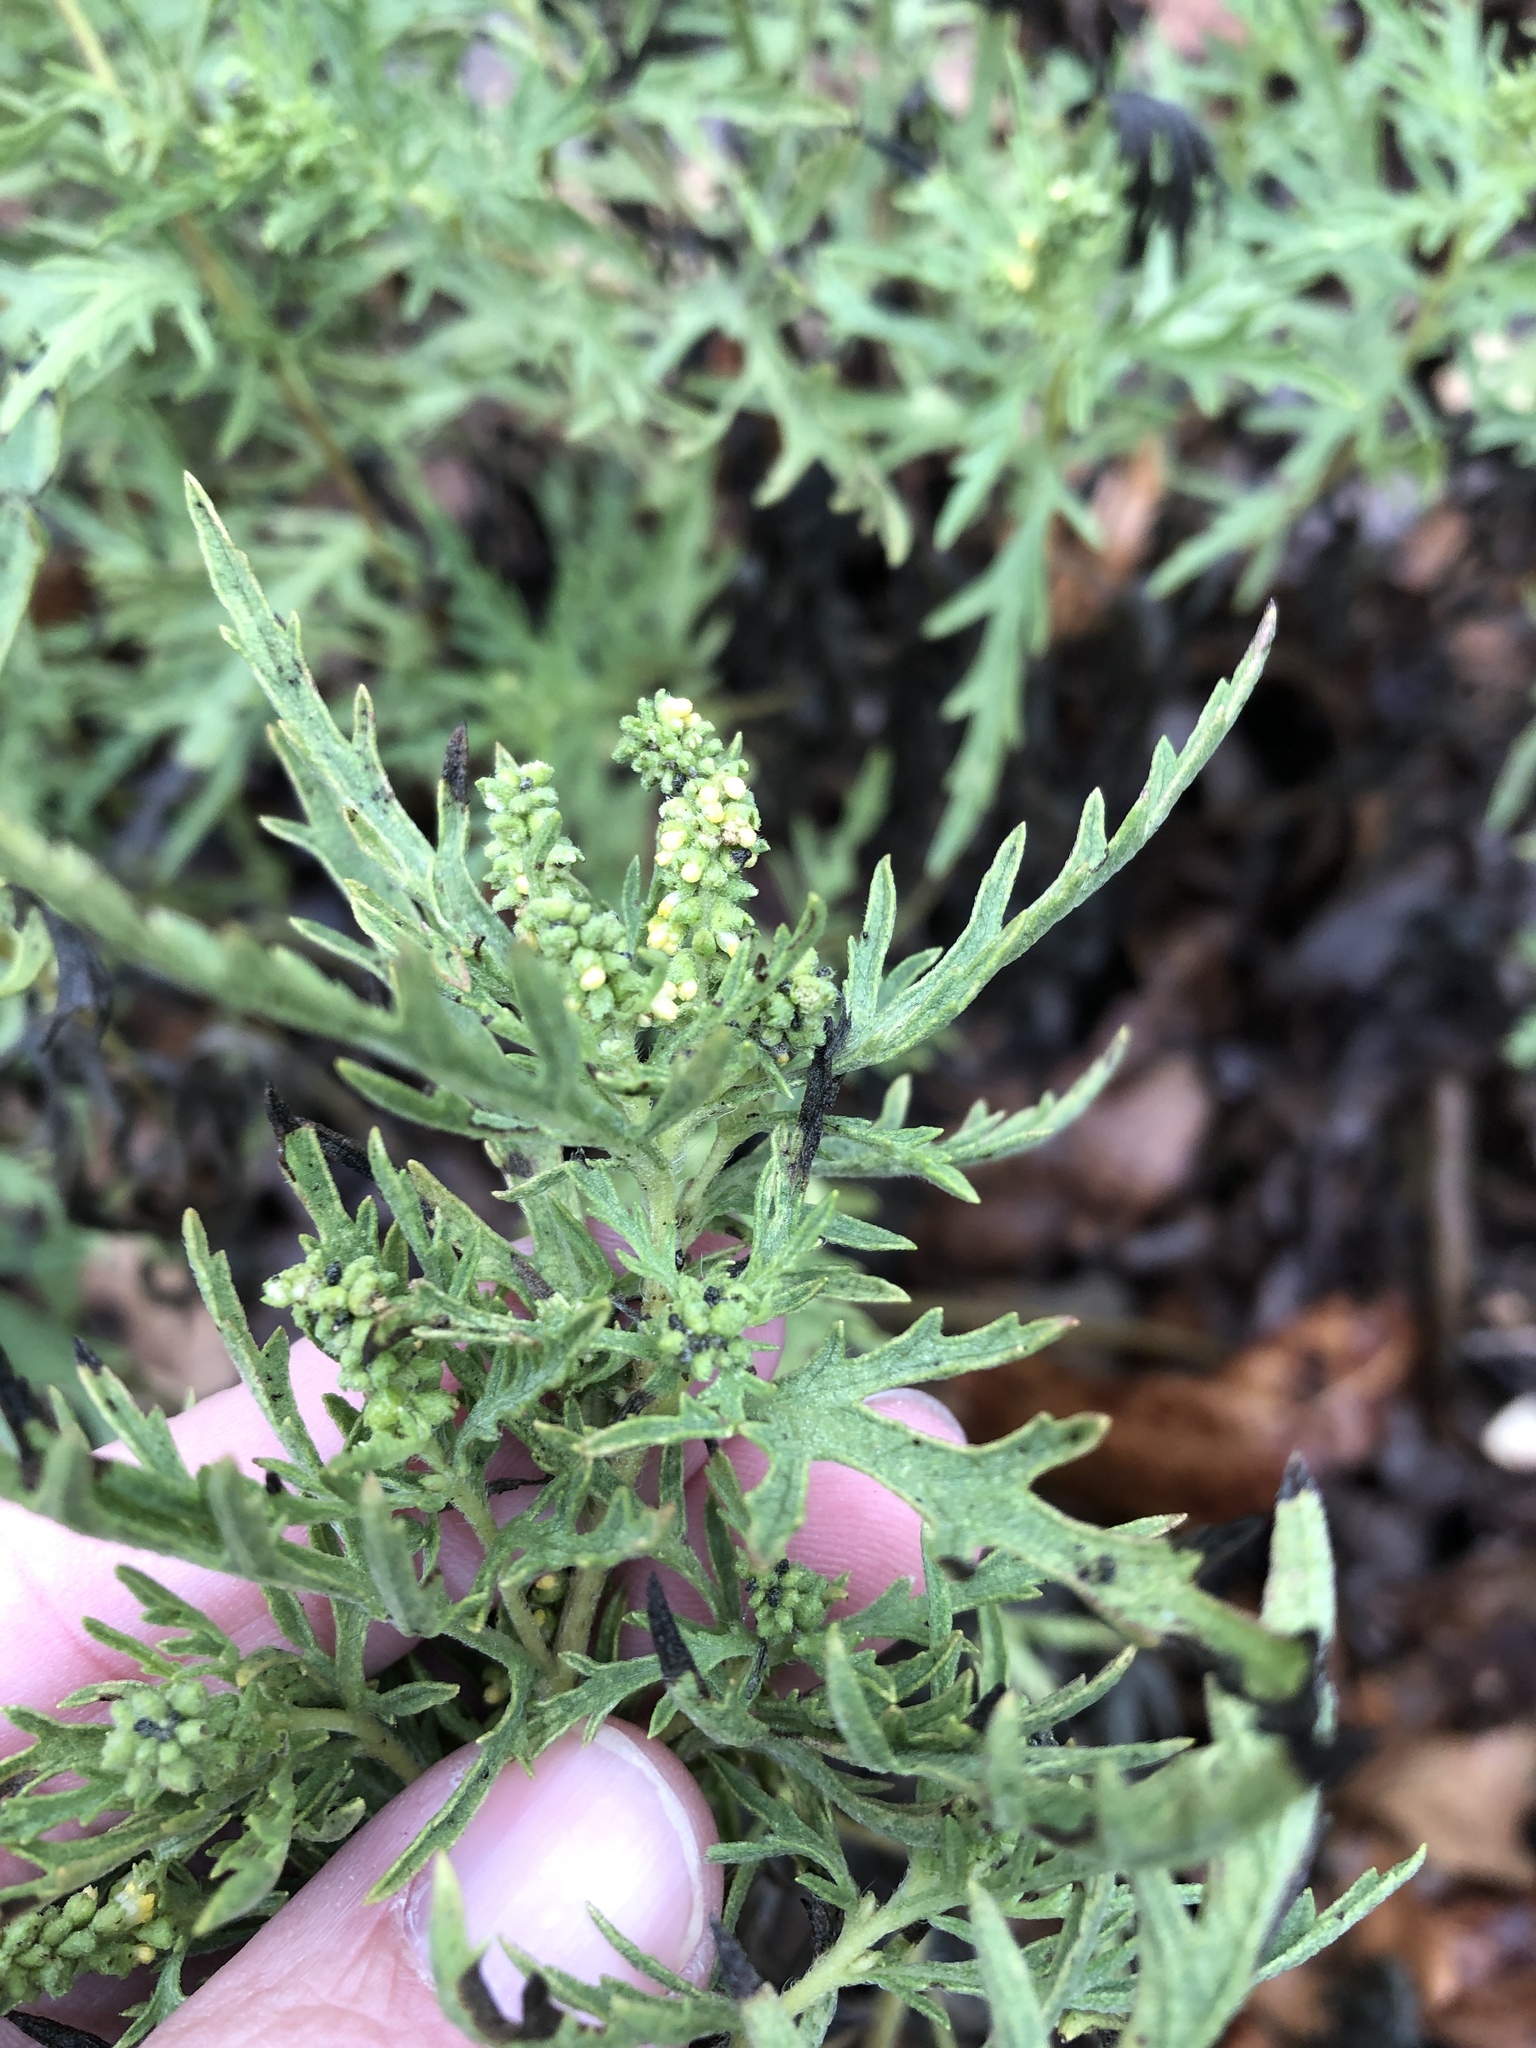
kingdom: Plantae
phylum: Tracheophyta
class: Magnoliopsida
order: Asterales
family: Asteraceae
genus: Ambrosia
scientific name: Ambrosia psilostachya
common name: Perennial ragweed
